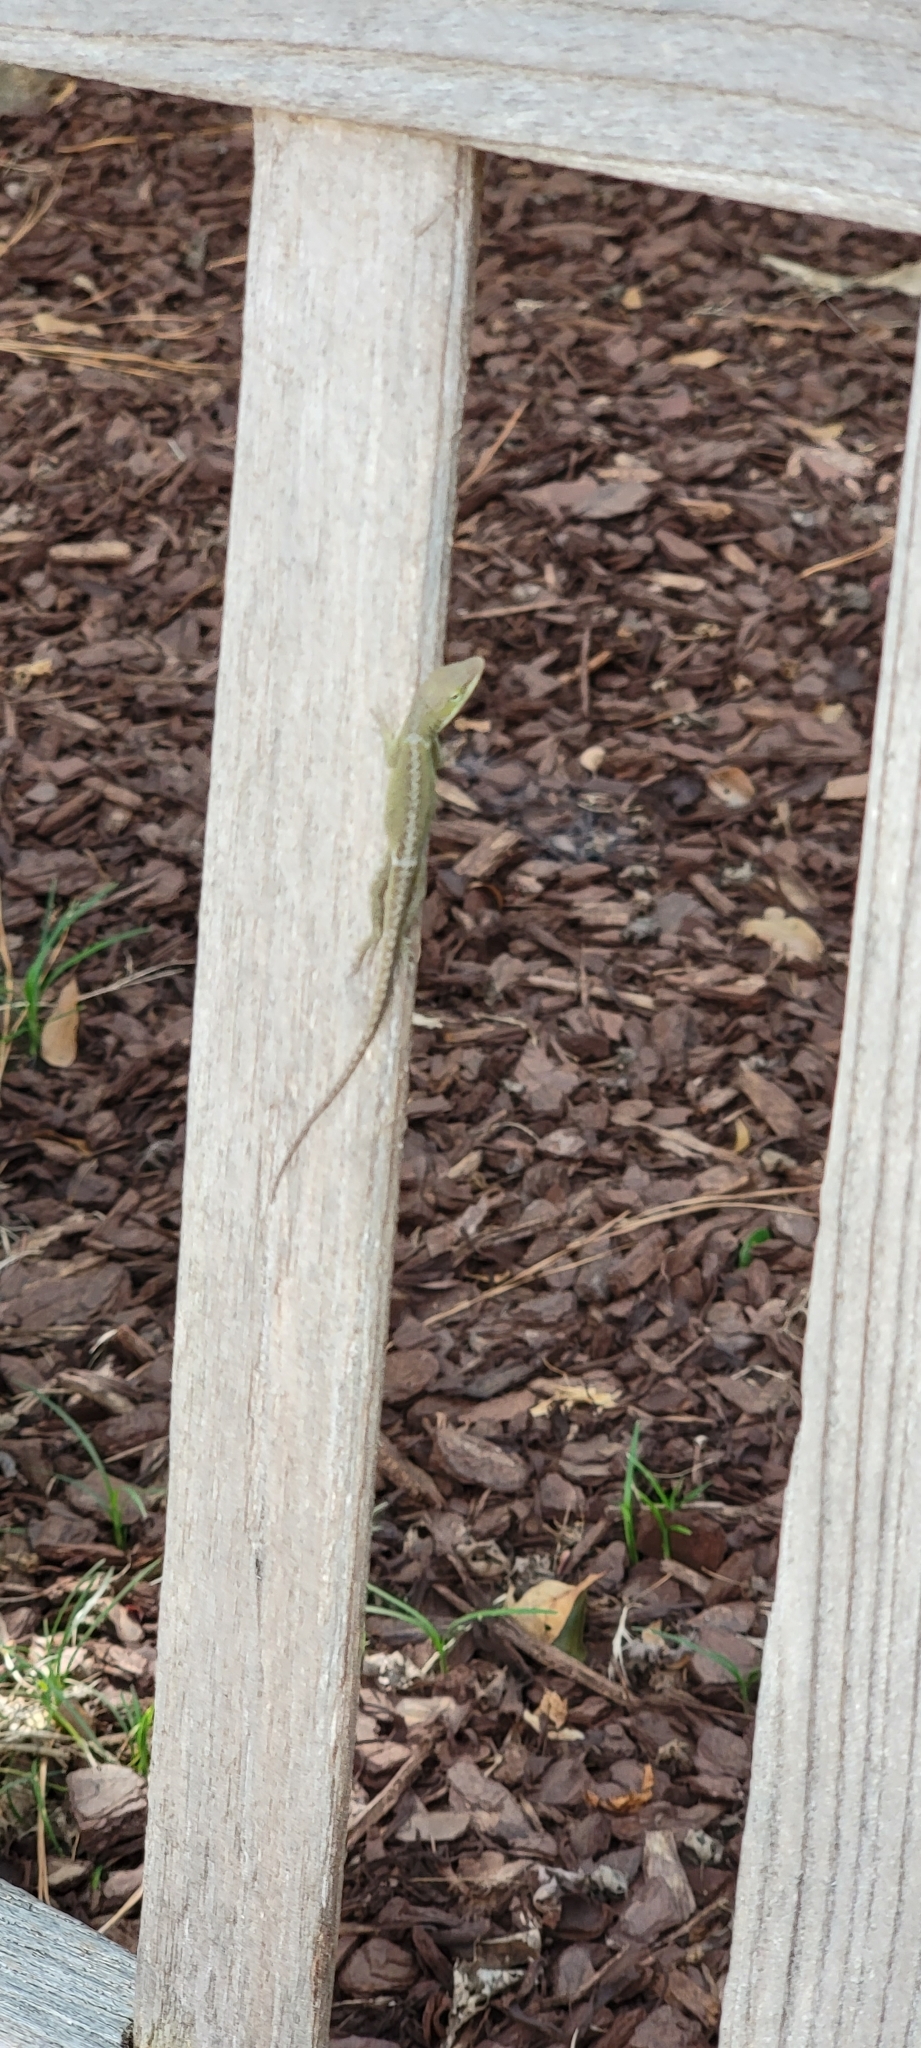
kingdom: Animalia
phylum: Chordata
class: Squamata
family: Dactyloidae
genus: Anolis
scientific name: Anolis carolinensis
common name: Green anole
